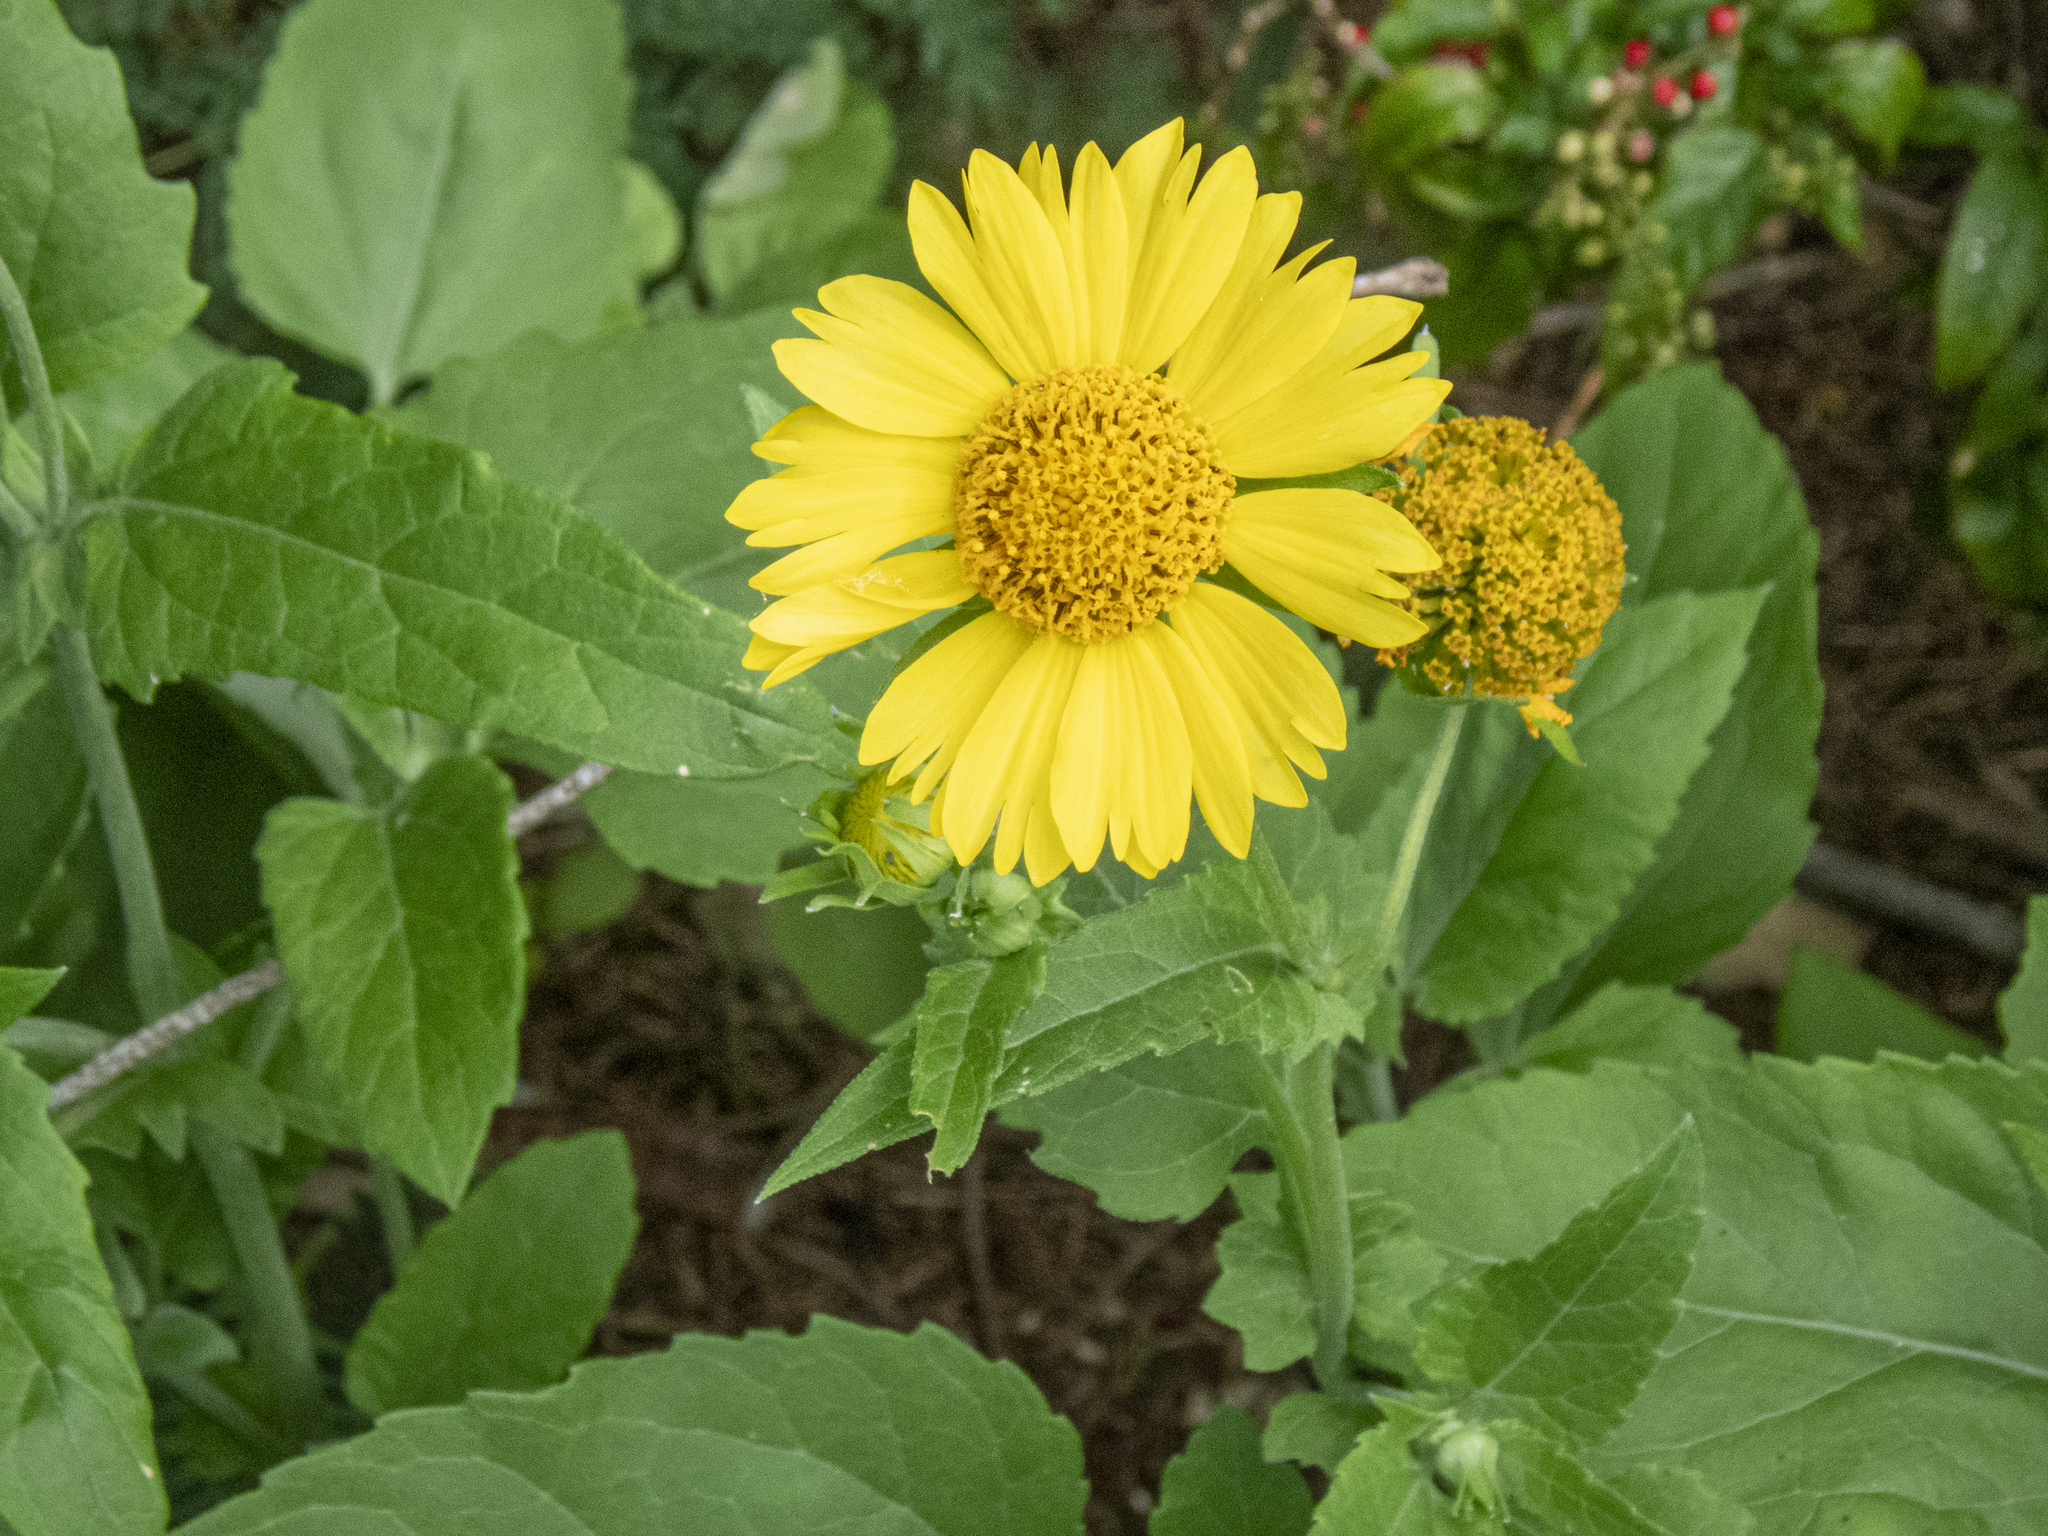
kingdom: Plantae
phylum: Tracheophyta
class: Magnoliopsida
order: Asterales
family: Asteraceae
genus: Verbesina
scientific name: Verbesina encelioides
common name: Golden crownbeard
